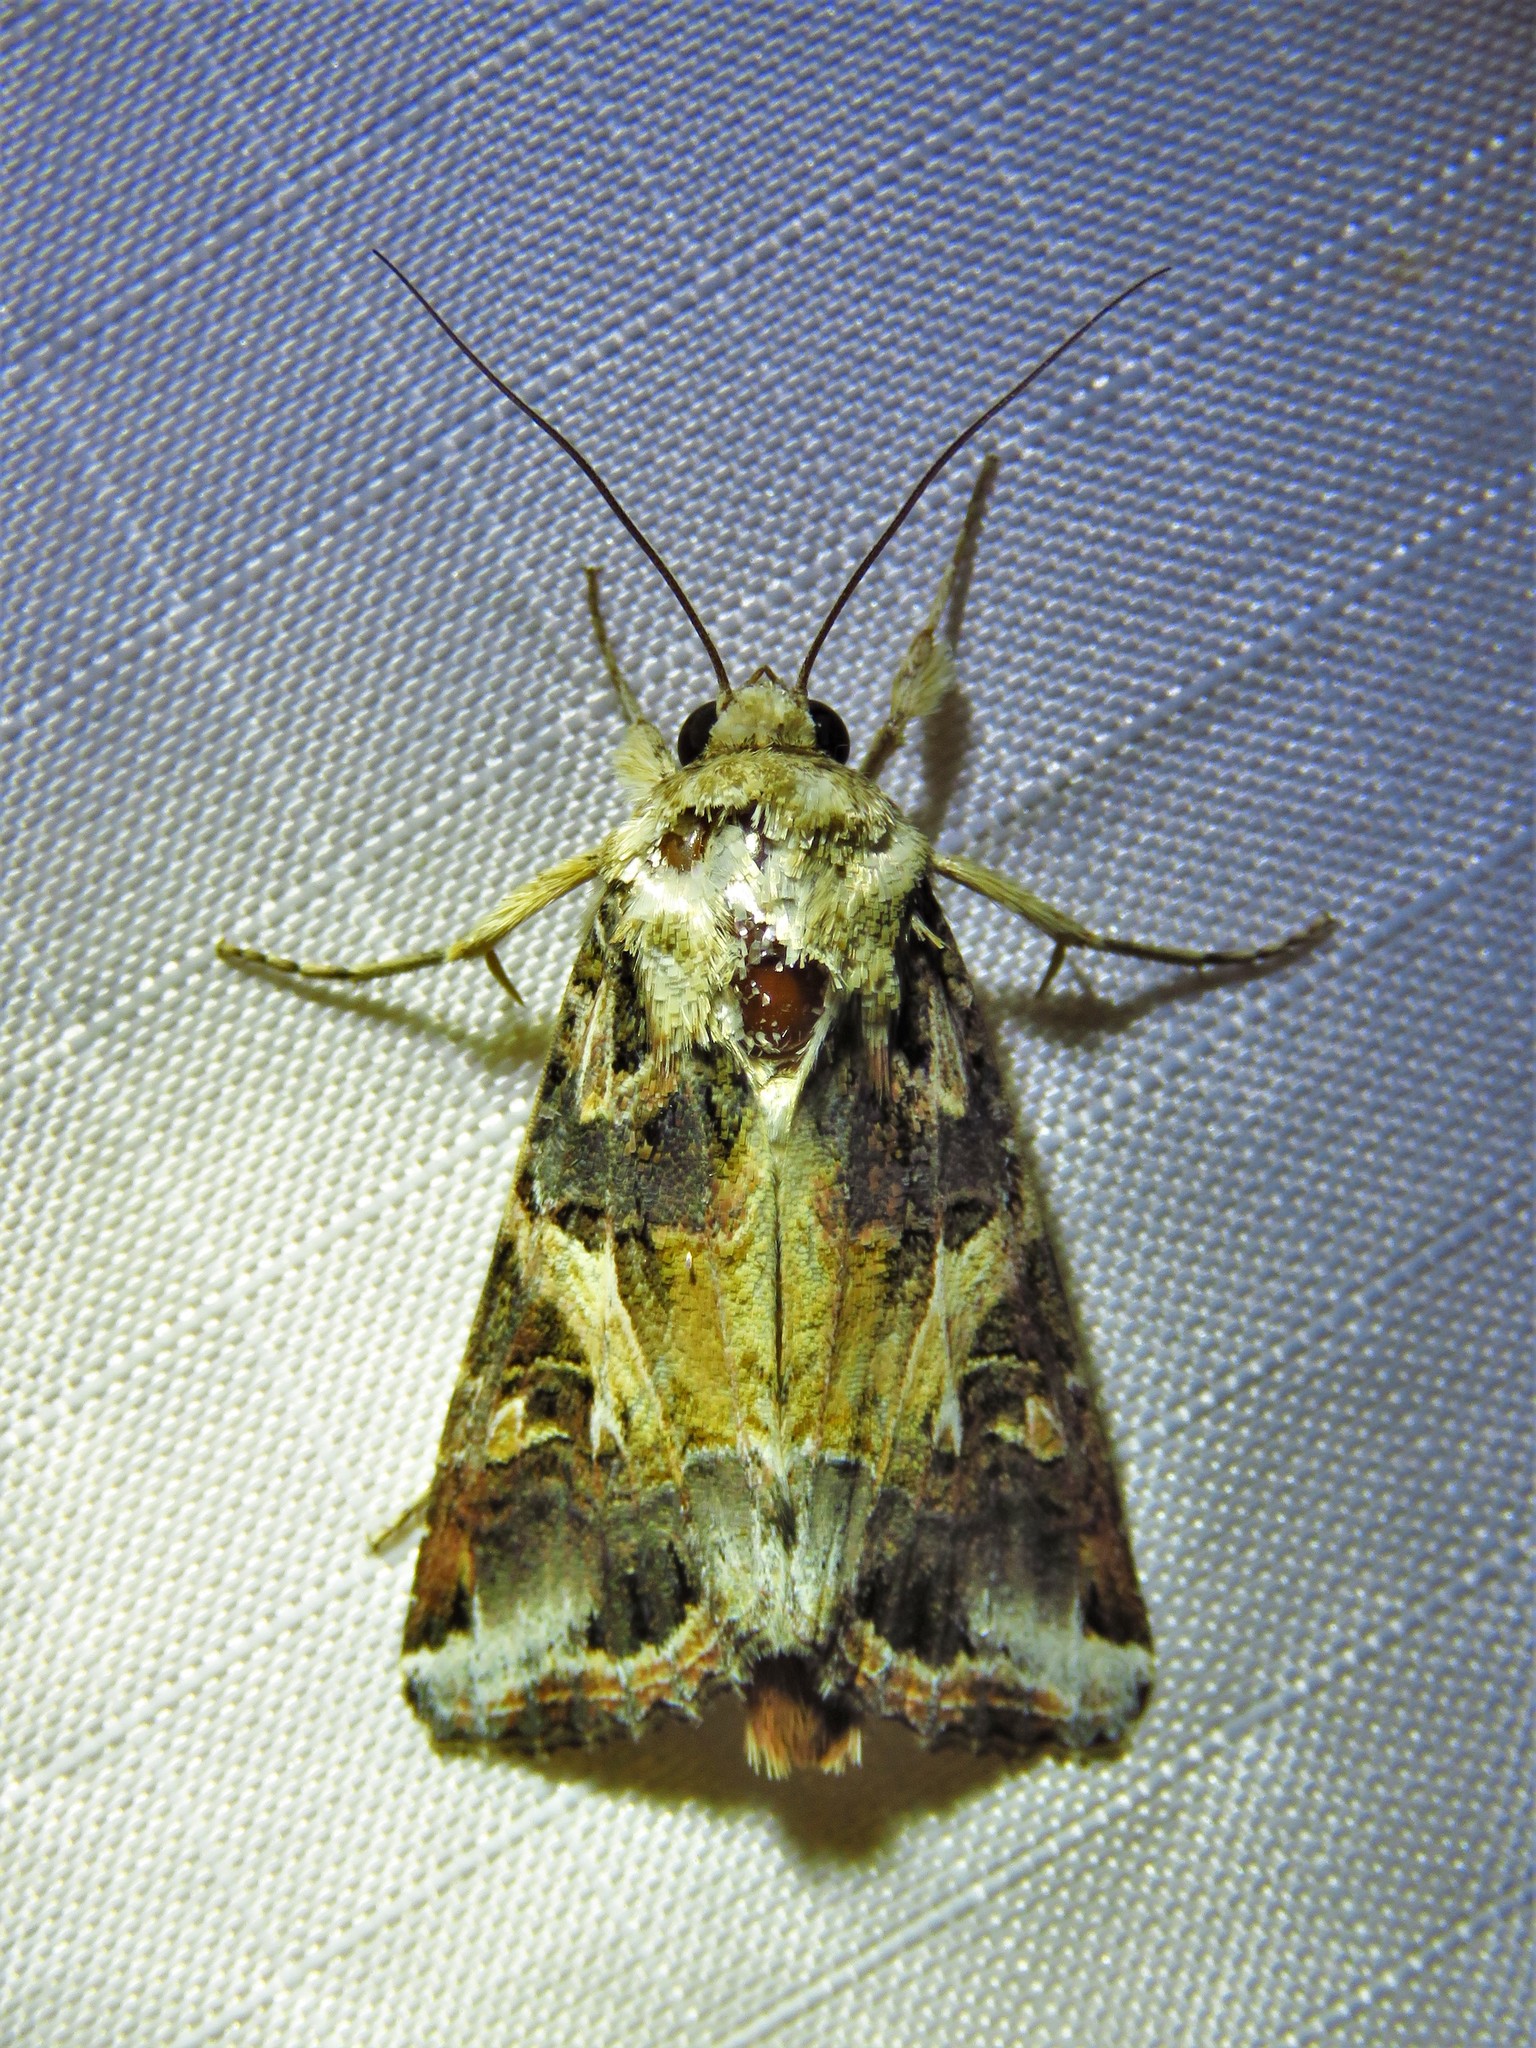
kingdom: Animalia
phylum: Arthropoda
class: Insecta
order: Lepidoptera
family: Noctuidae
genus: Spodoptera
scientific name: Spodoptera ornithogalli
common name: Yellow-striped armyworm
